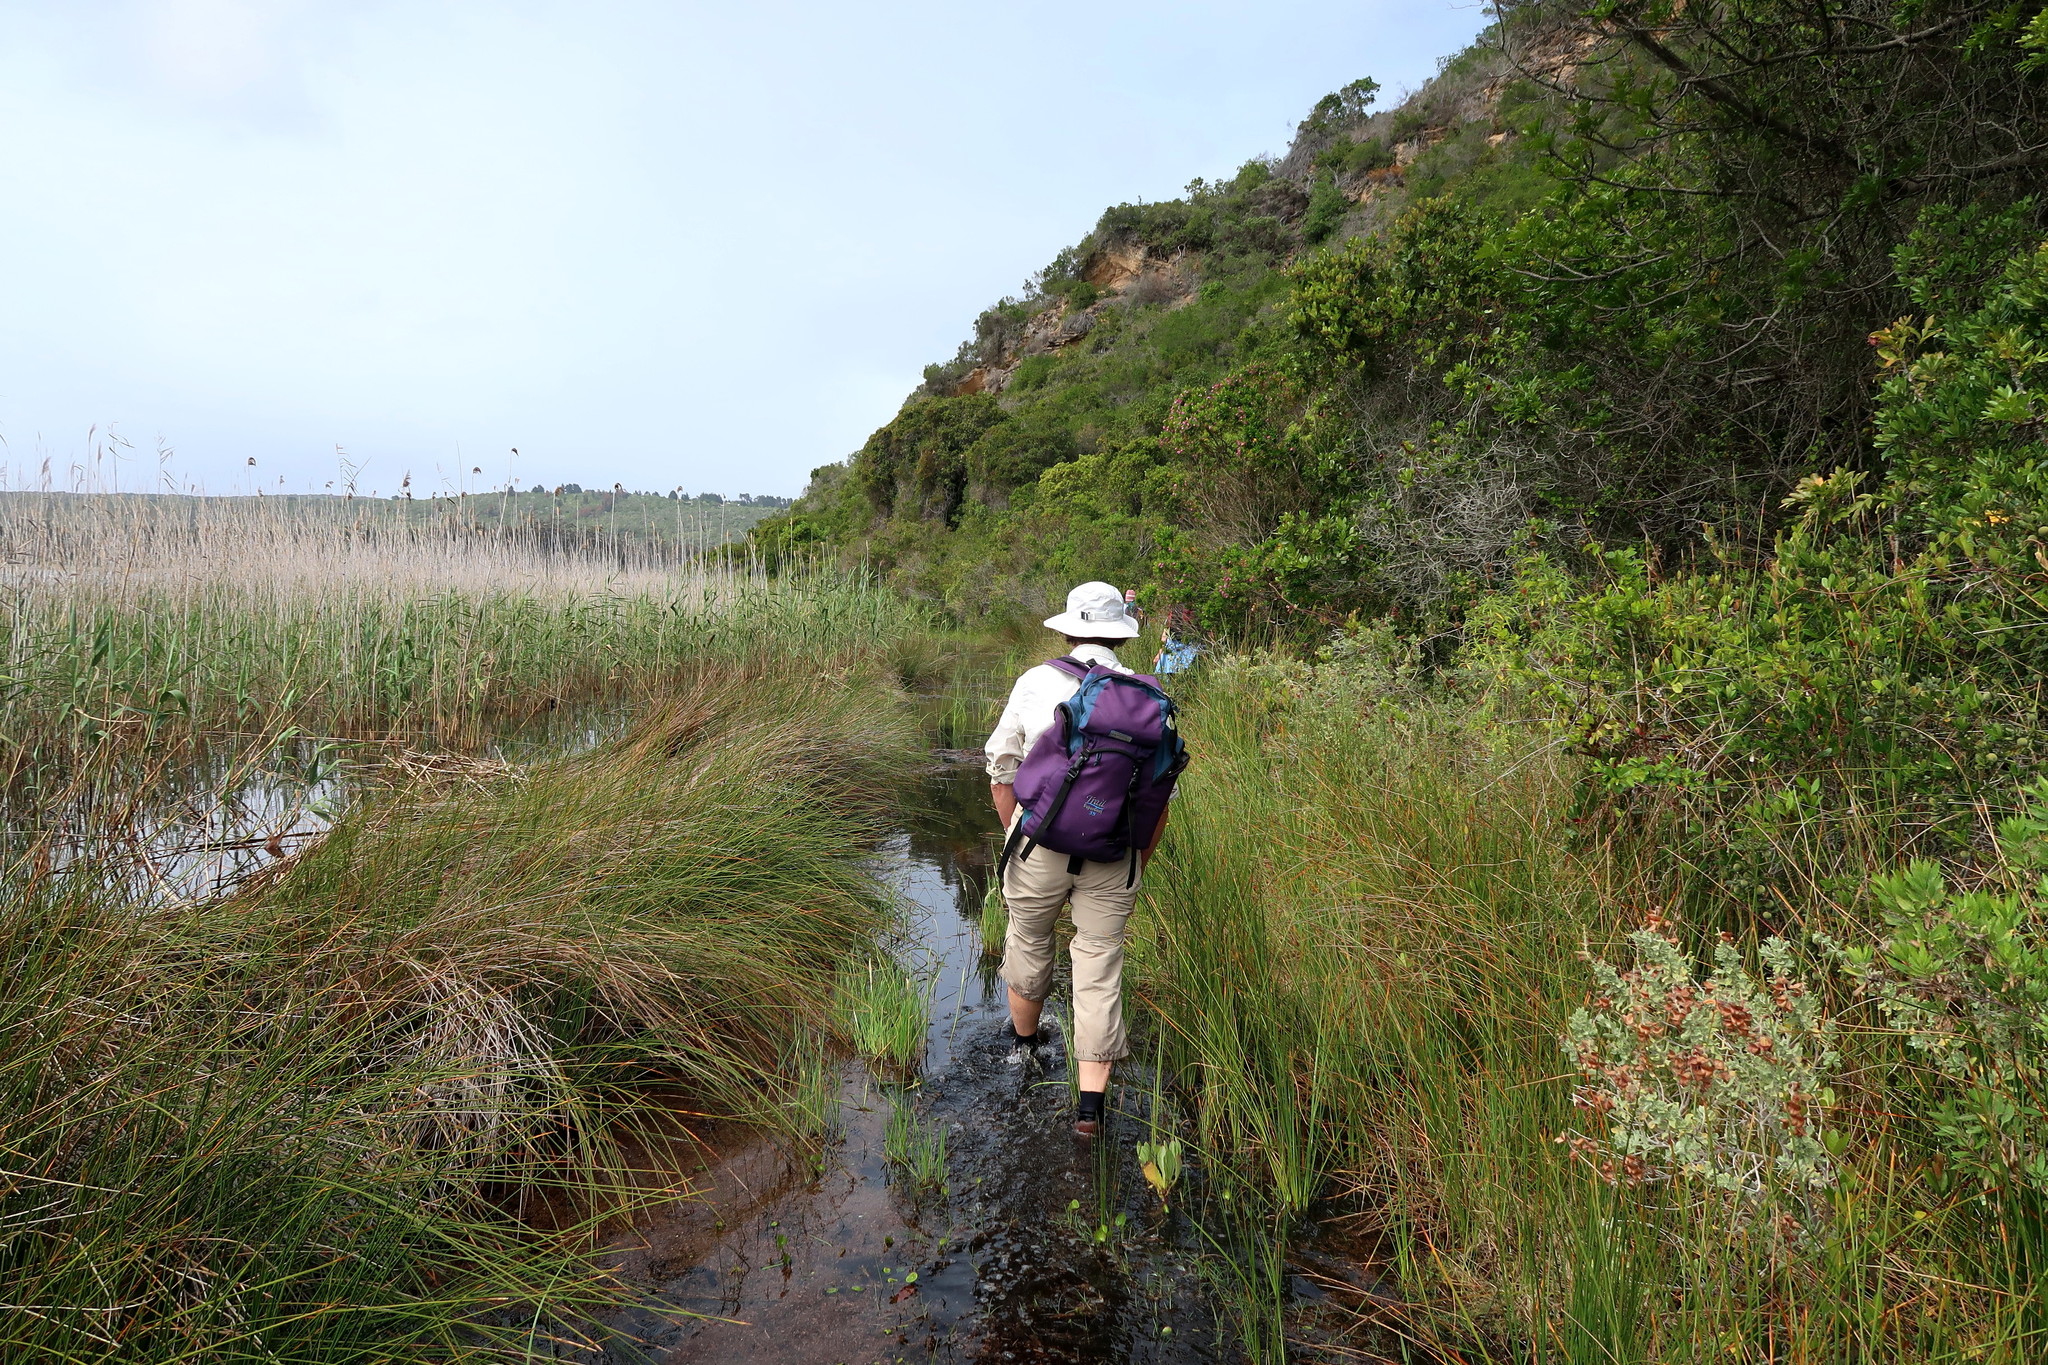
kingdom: Plantae
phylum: Tracheophyta
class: Magnoliopsida
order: Lamiales
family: Lamiaceae
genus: Salvia
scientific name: Salvia aurea
